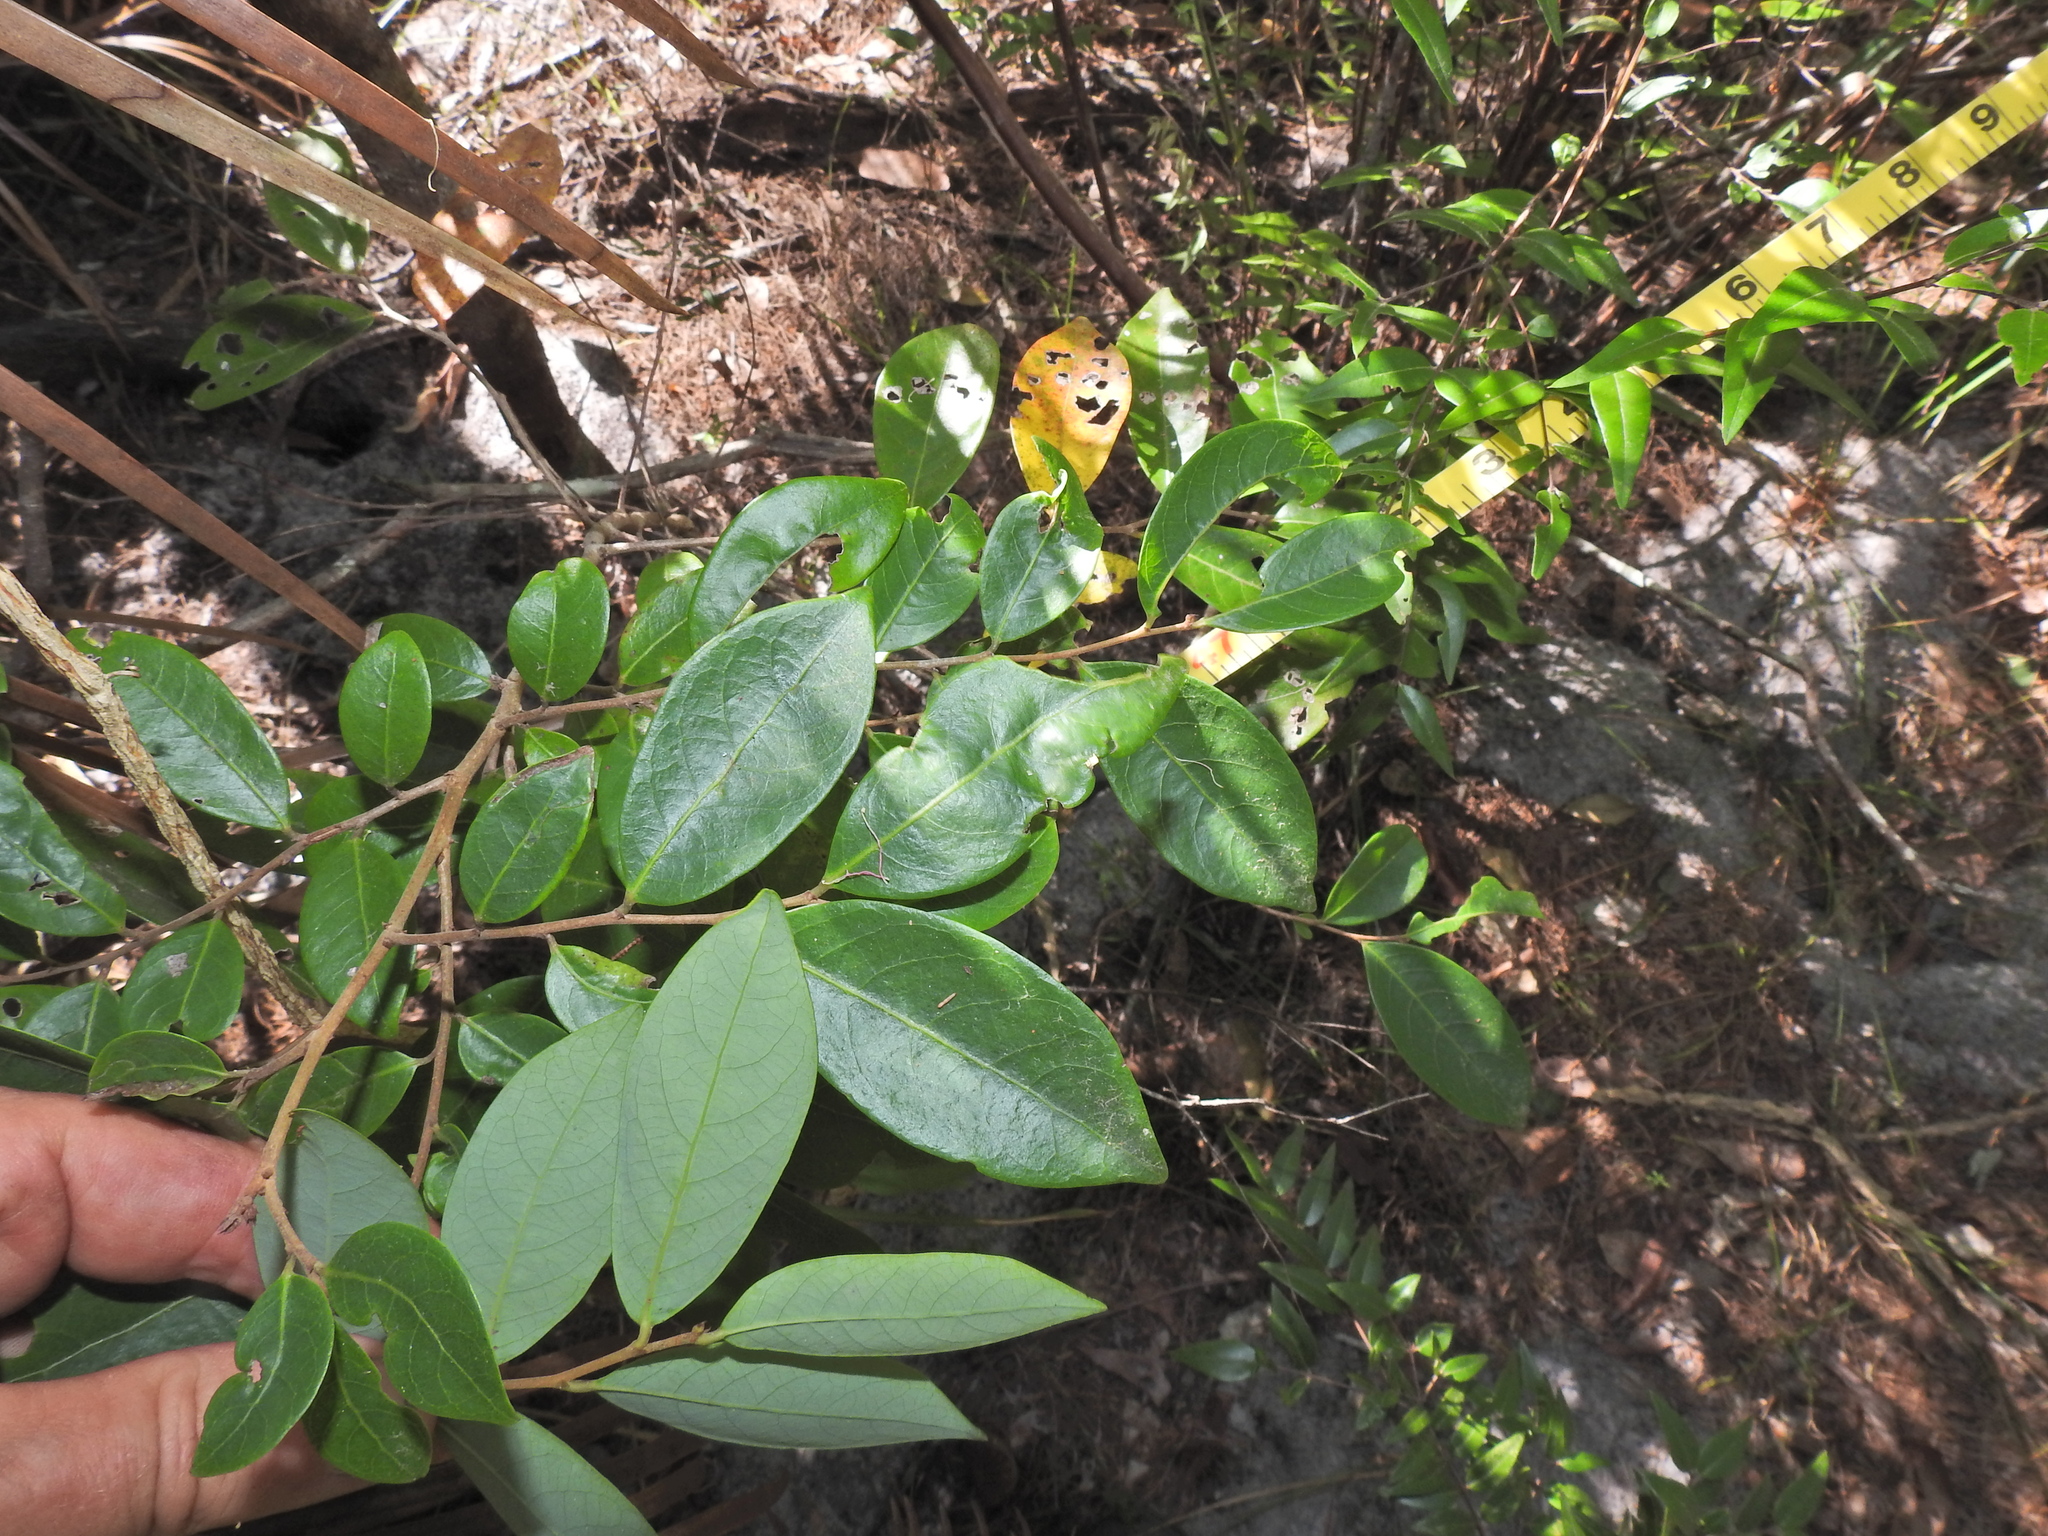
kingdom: Plantae
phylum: Tracheophyta
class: Magnoliopsida
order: Malpighiales
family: Phyllanthaceae
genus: Glochidion
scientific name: Glochidion lobocarpum
